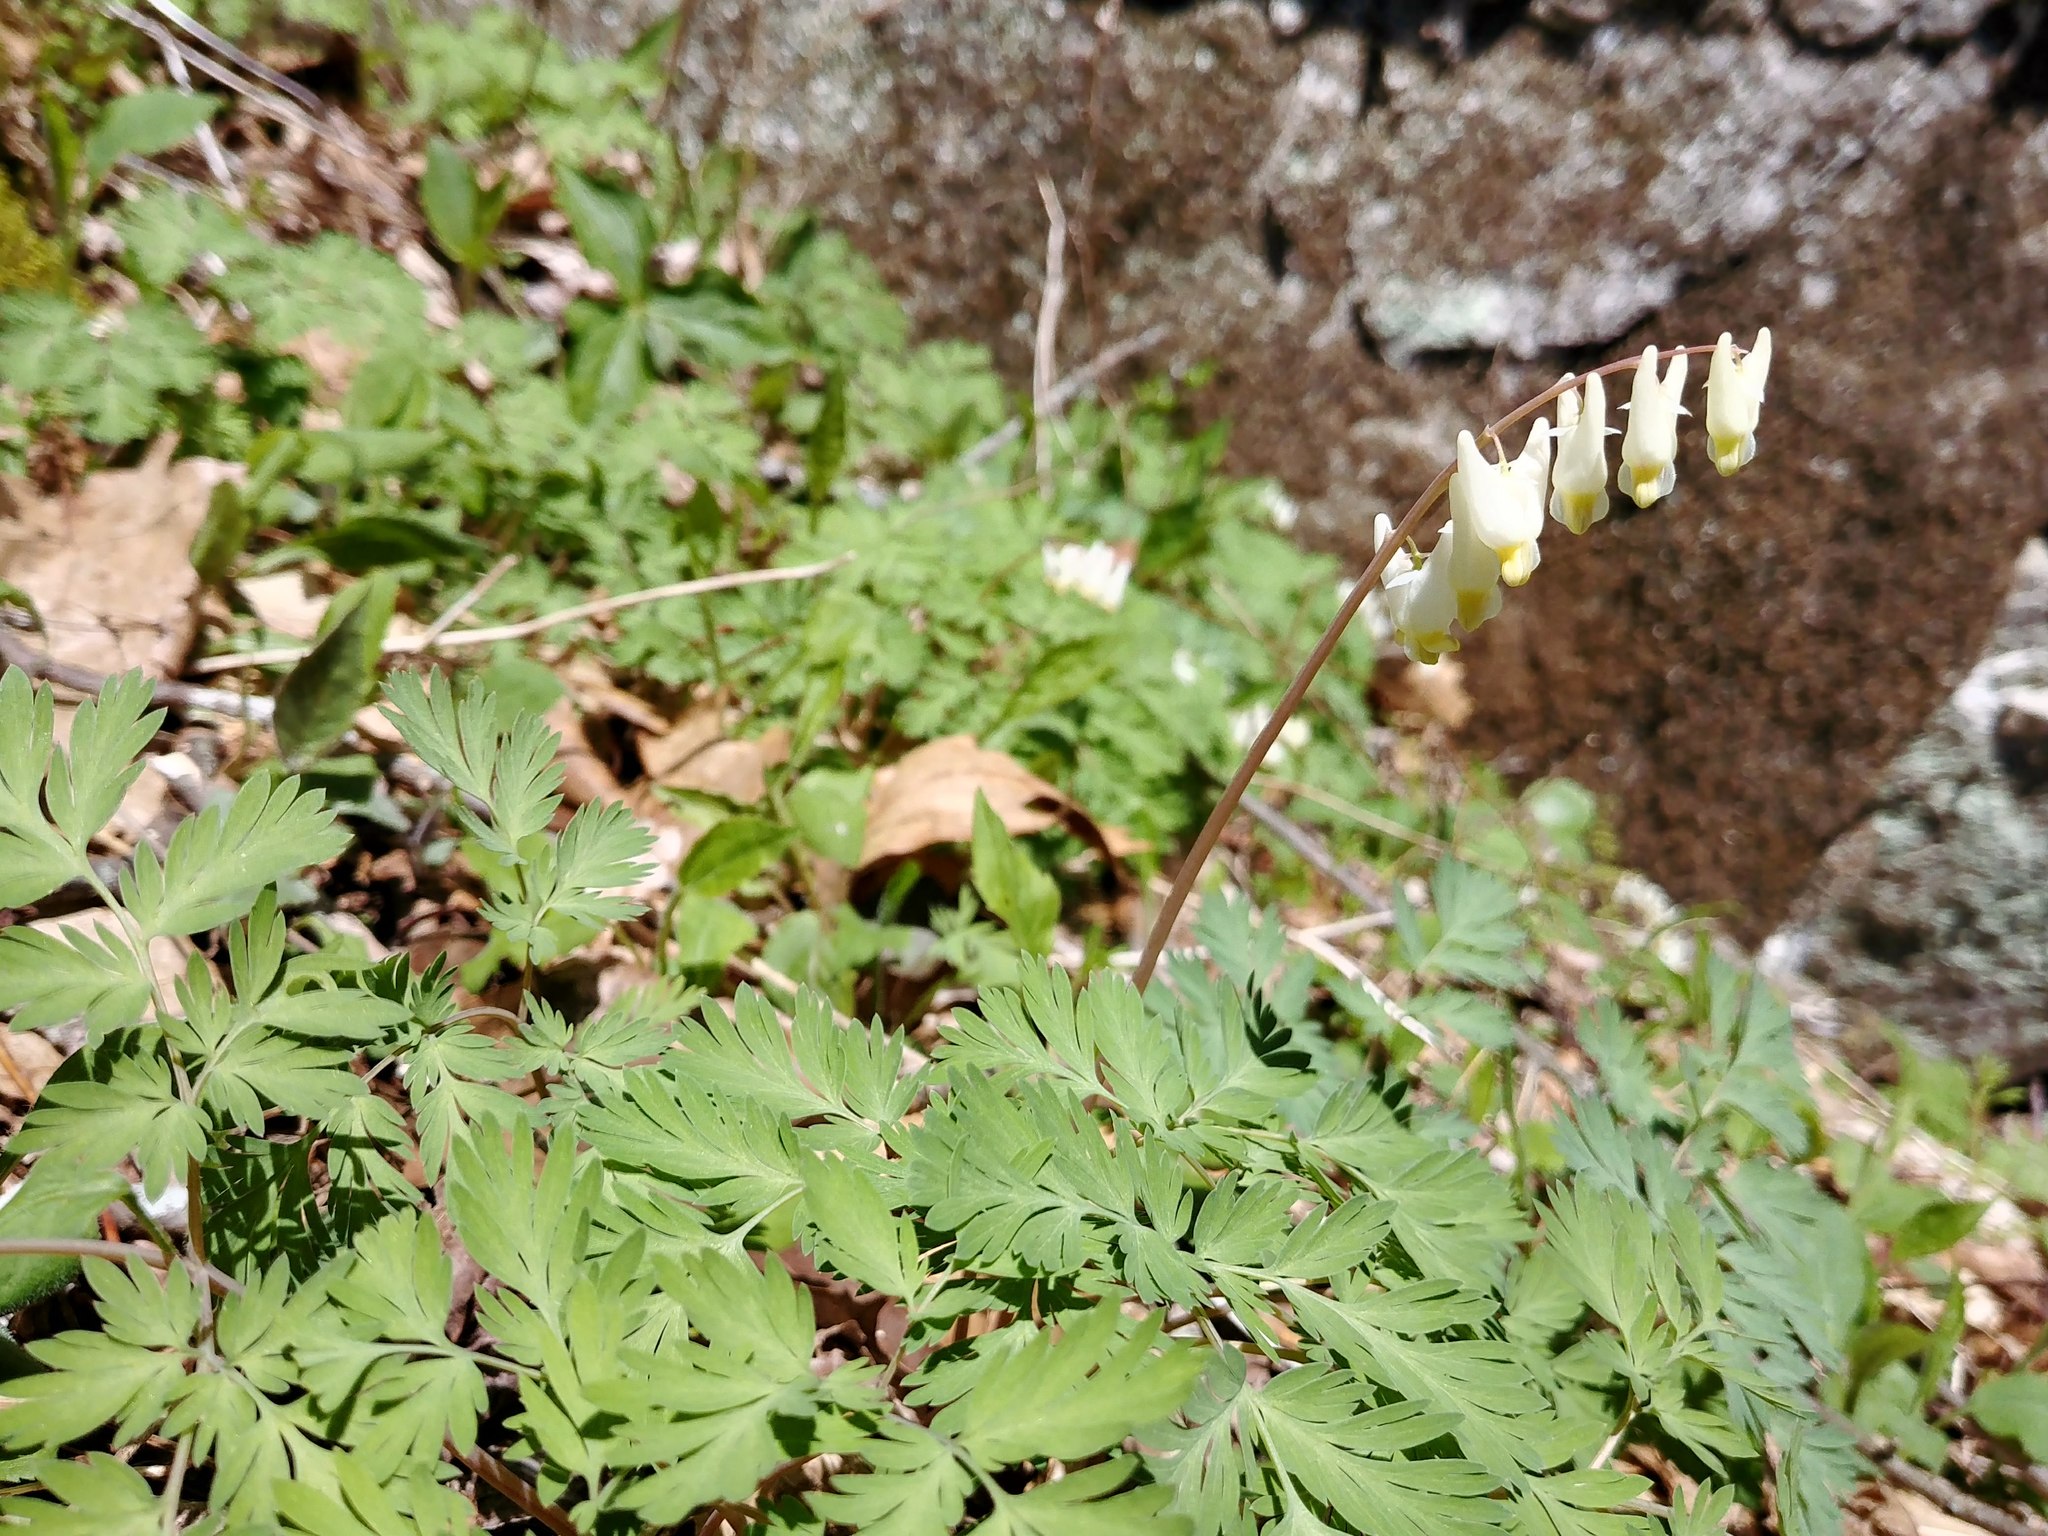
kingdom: Plantae
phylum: Tracheophyta
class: Magnoliopsida
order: Ranunculales
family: Papaveraceae
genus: Dicentra
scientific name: Dicentra cucullaria
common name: Dutchman's breeches
